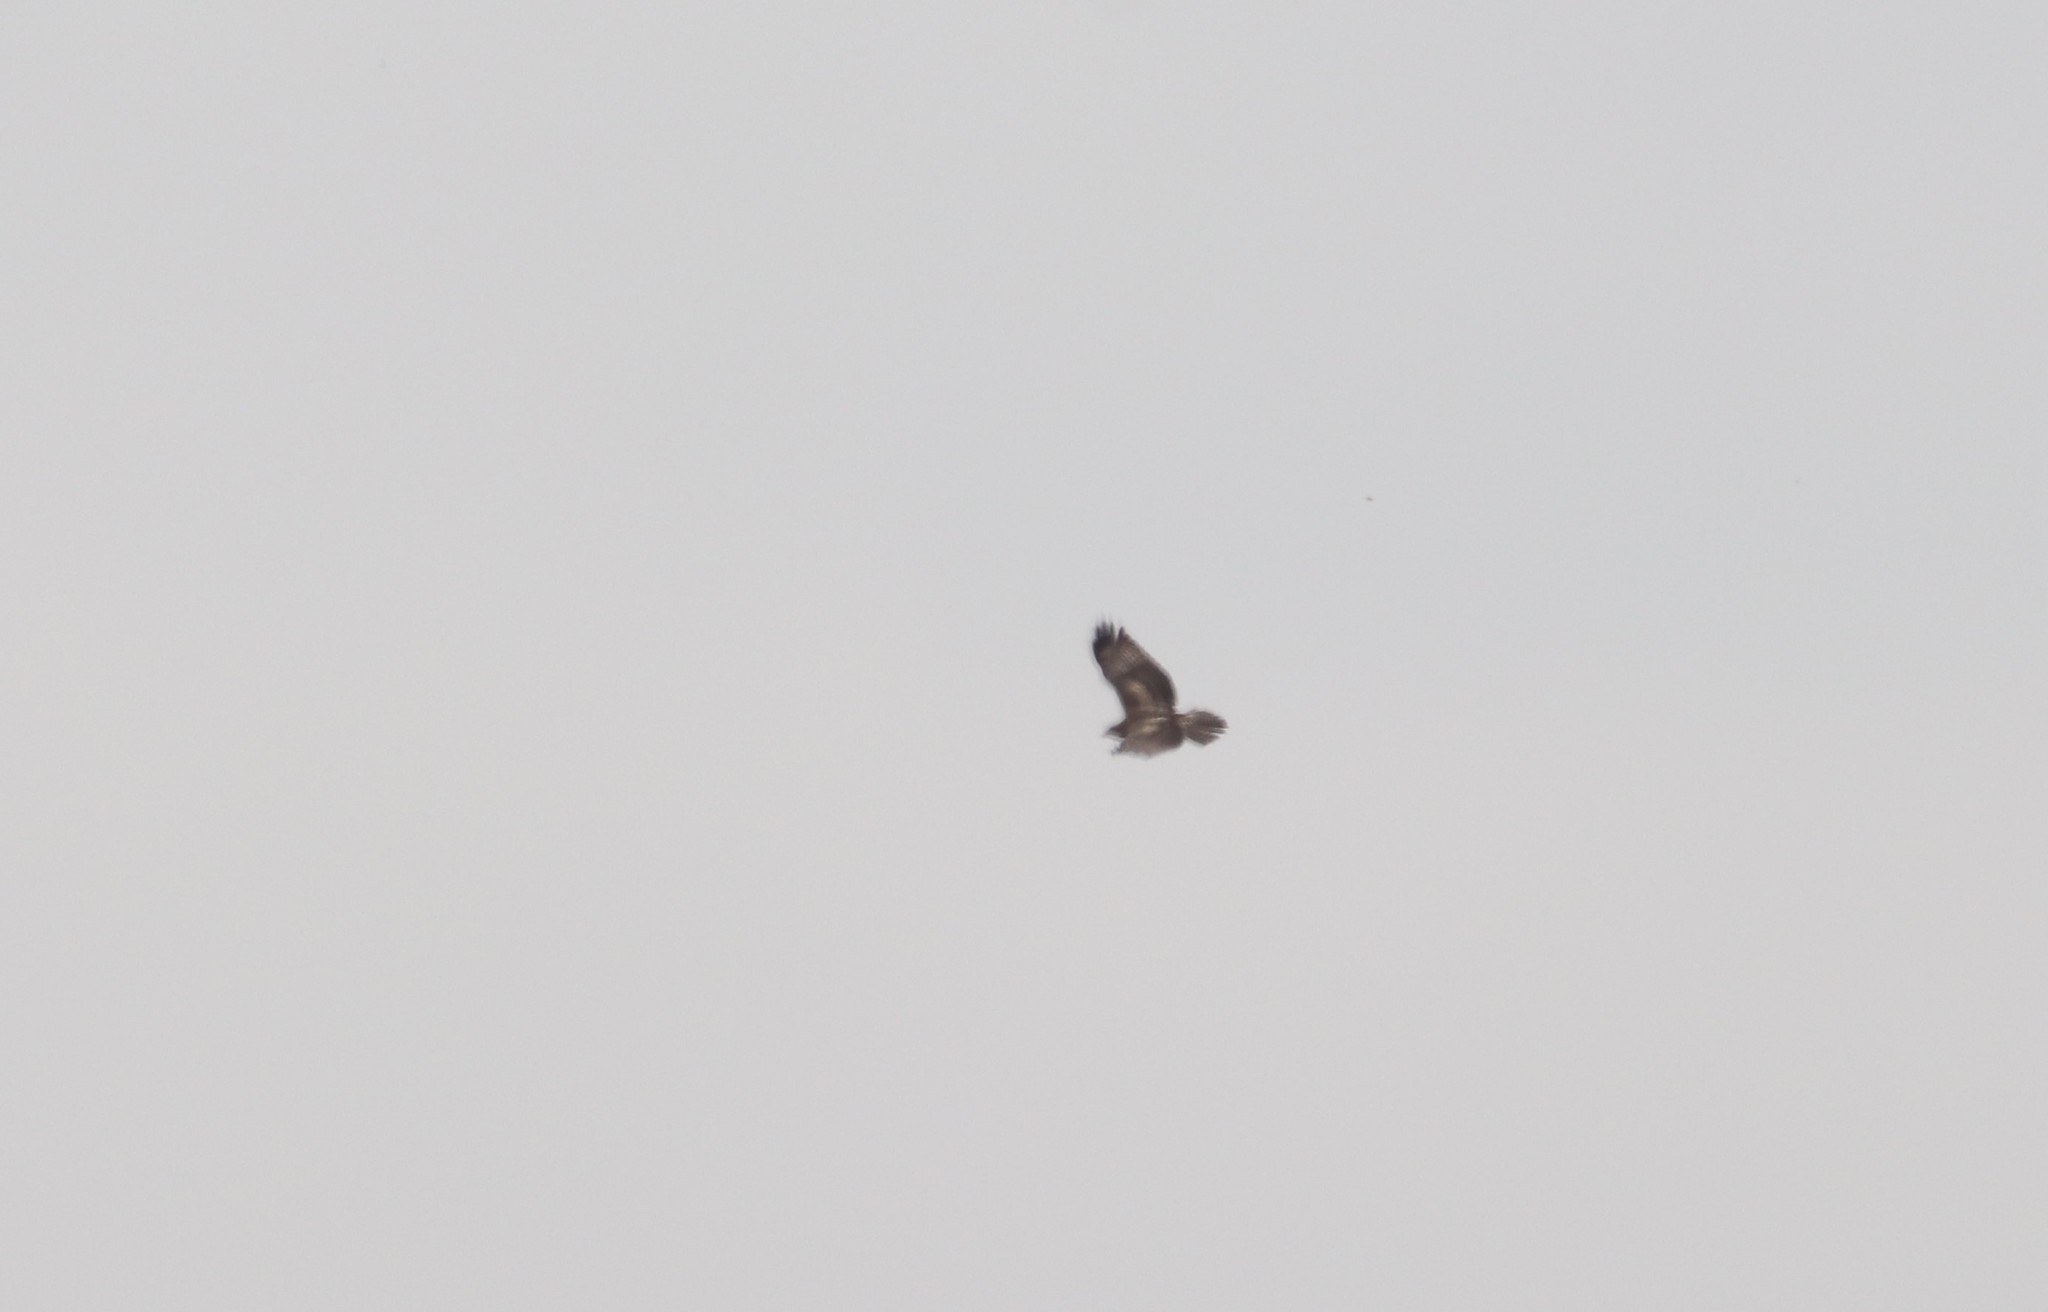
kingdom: Animalia
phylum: Chordata
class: Aves
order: Accipitriformes
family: Accipitridae
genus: Buteo
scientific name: Buteo jamaicensis
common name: Red-tailed hawk
